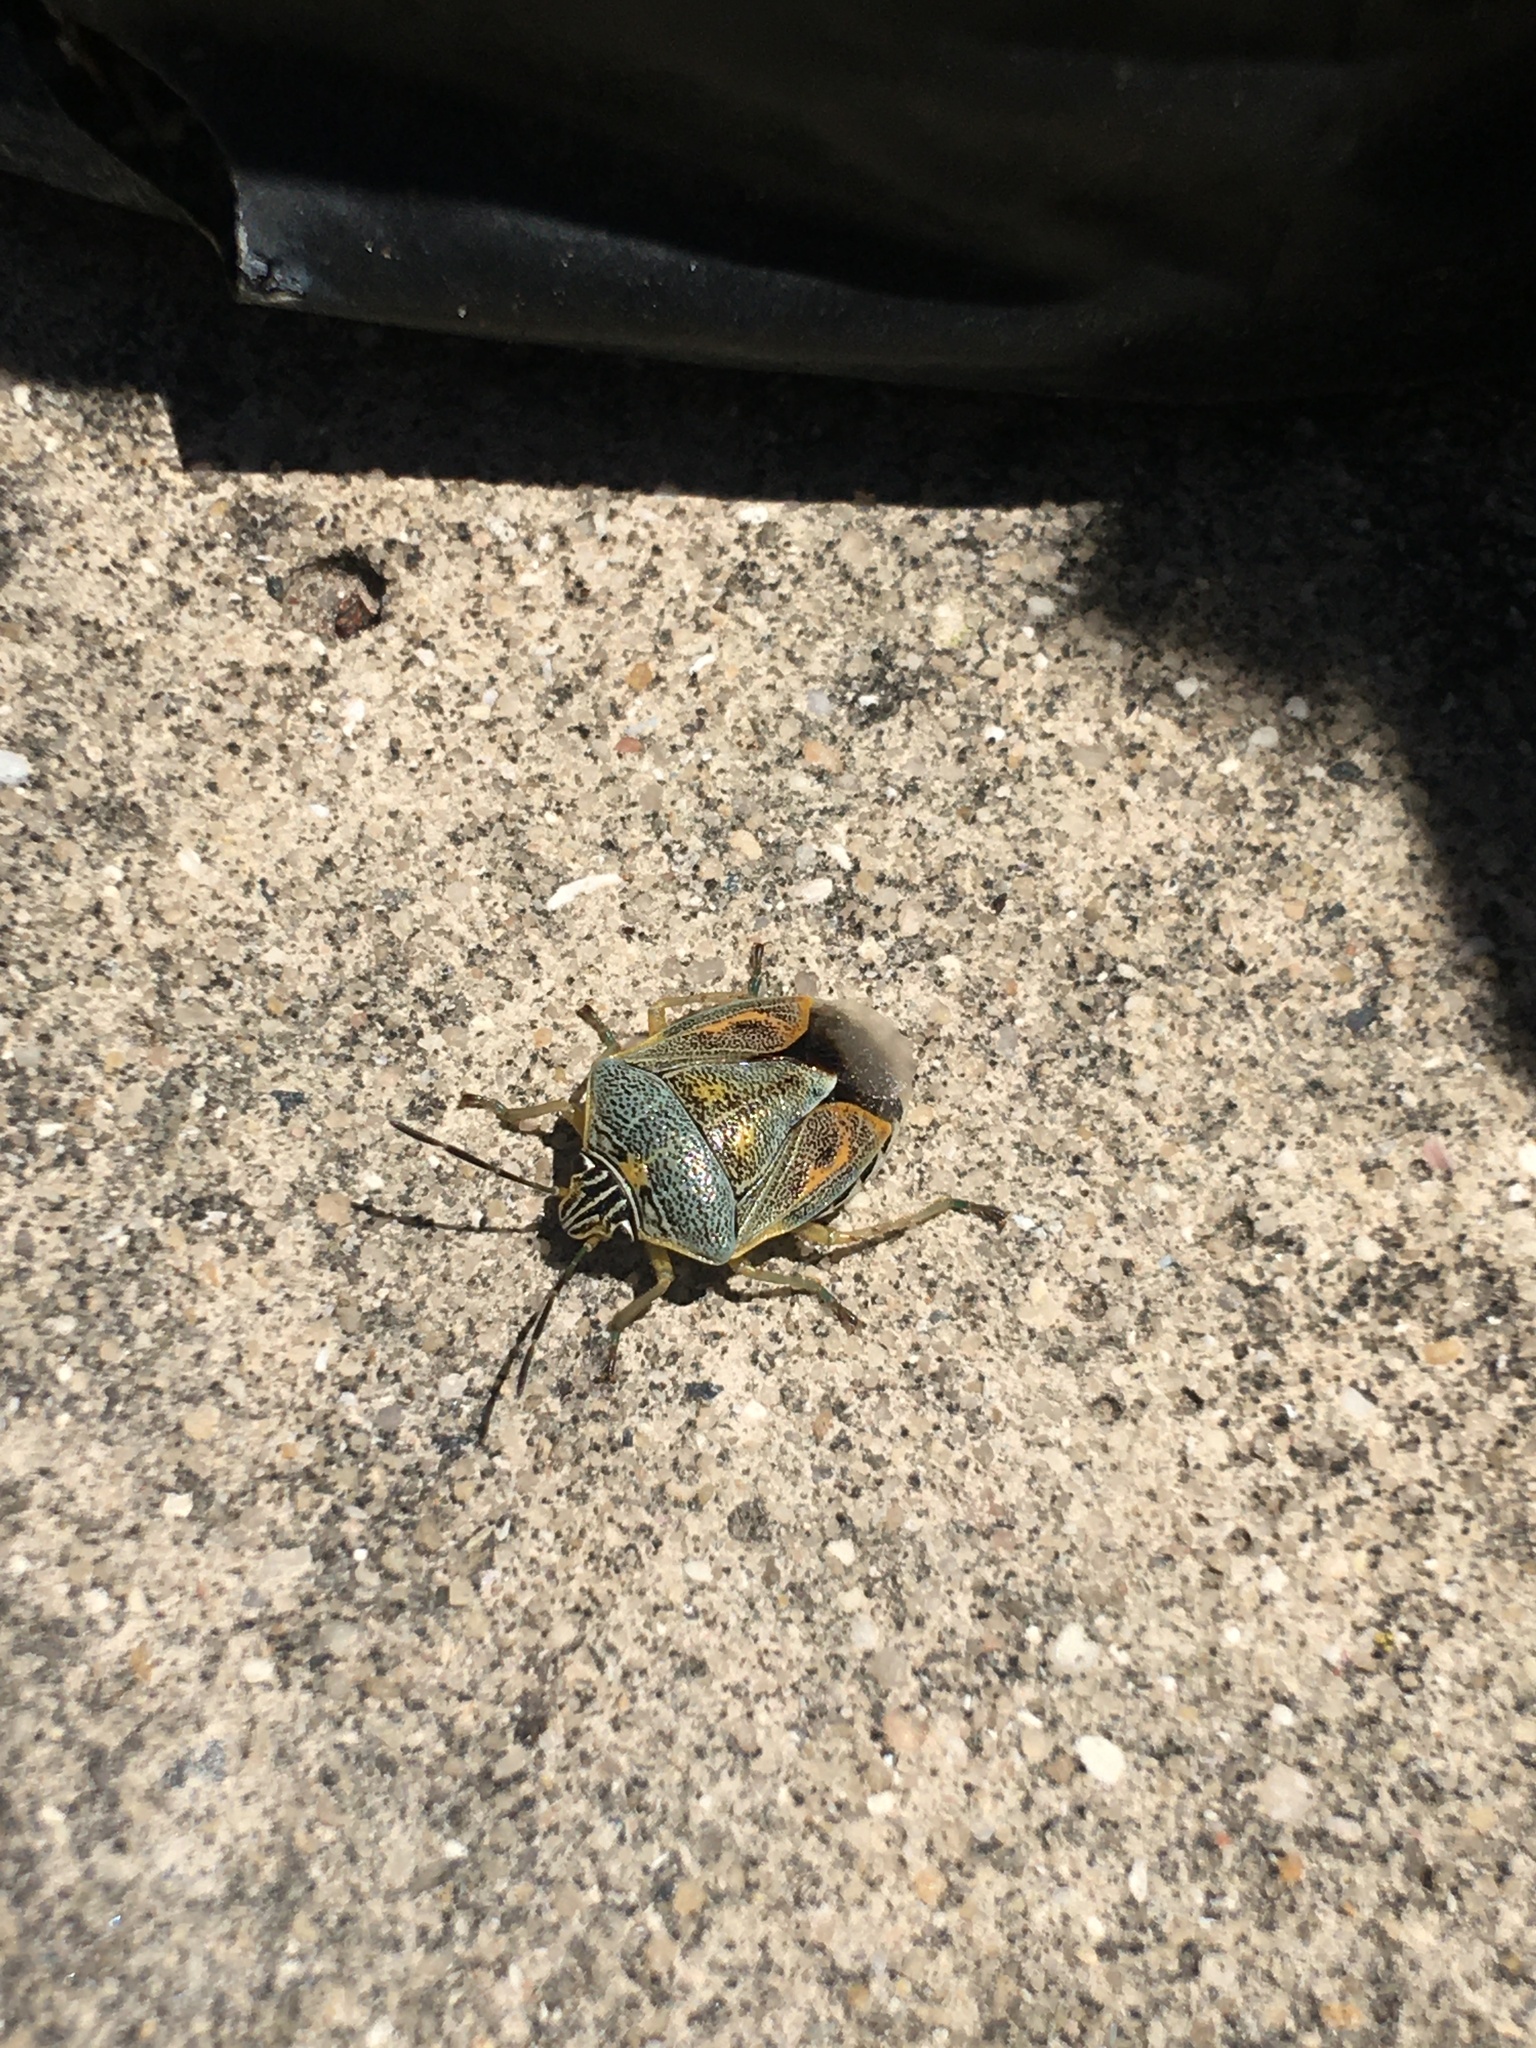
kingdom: Animalia
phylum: Arthropoda
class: Insecta
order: Hemiptera
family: Pentatomidae
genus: Antestiopsis
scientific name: Antestiopsis thunbergii
